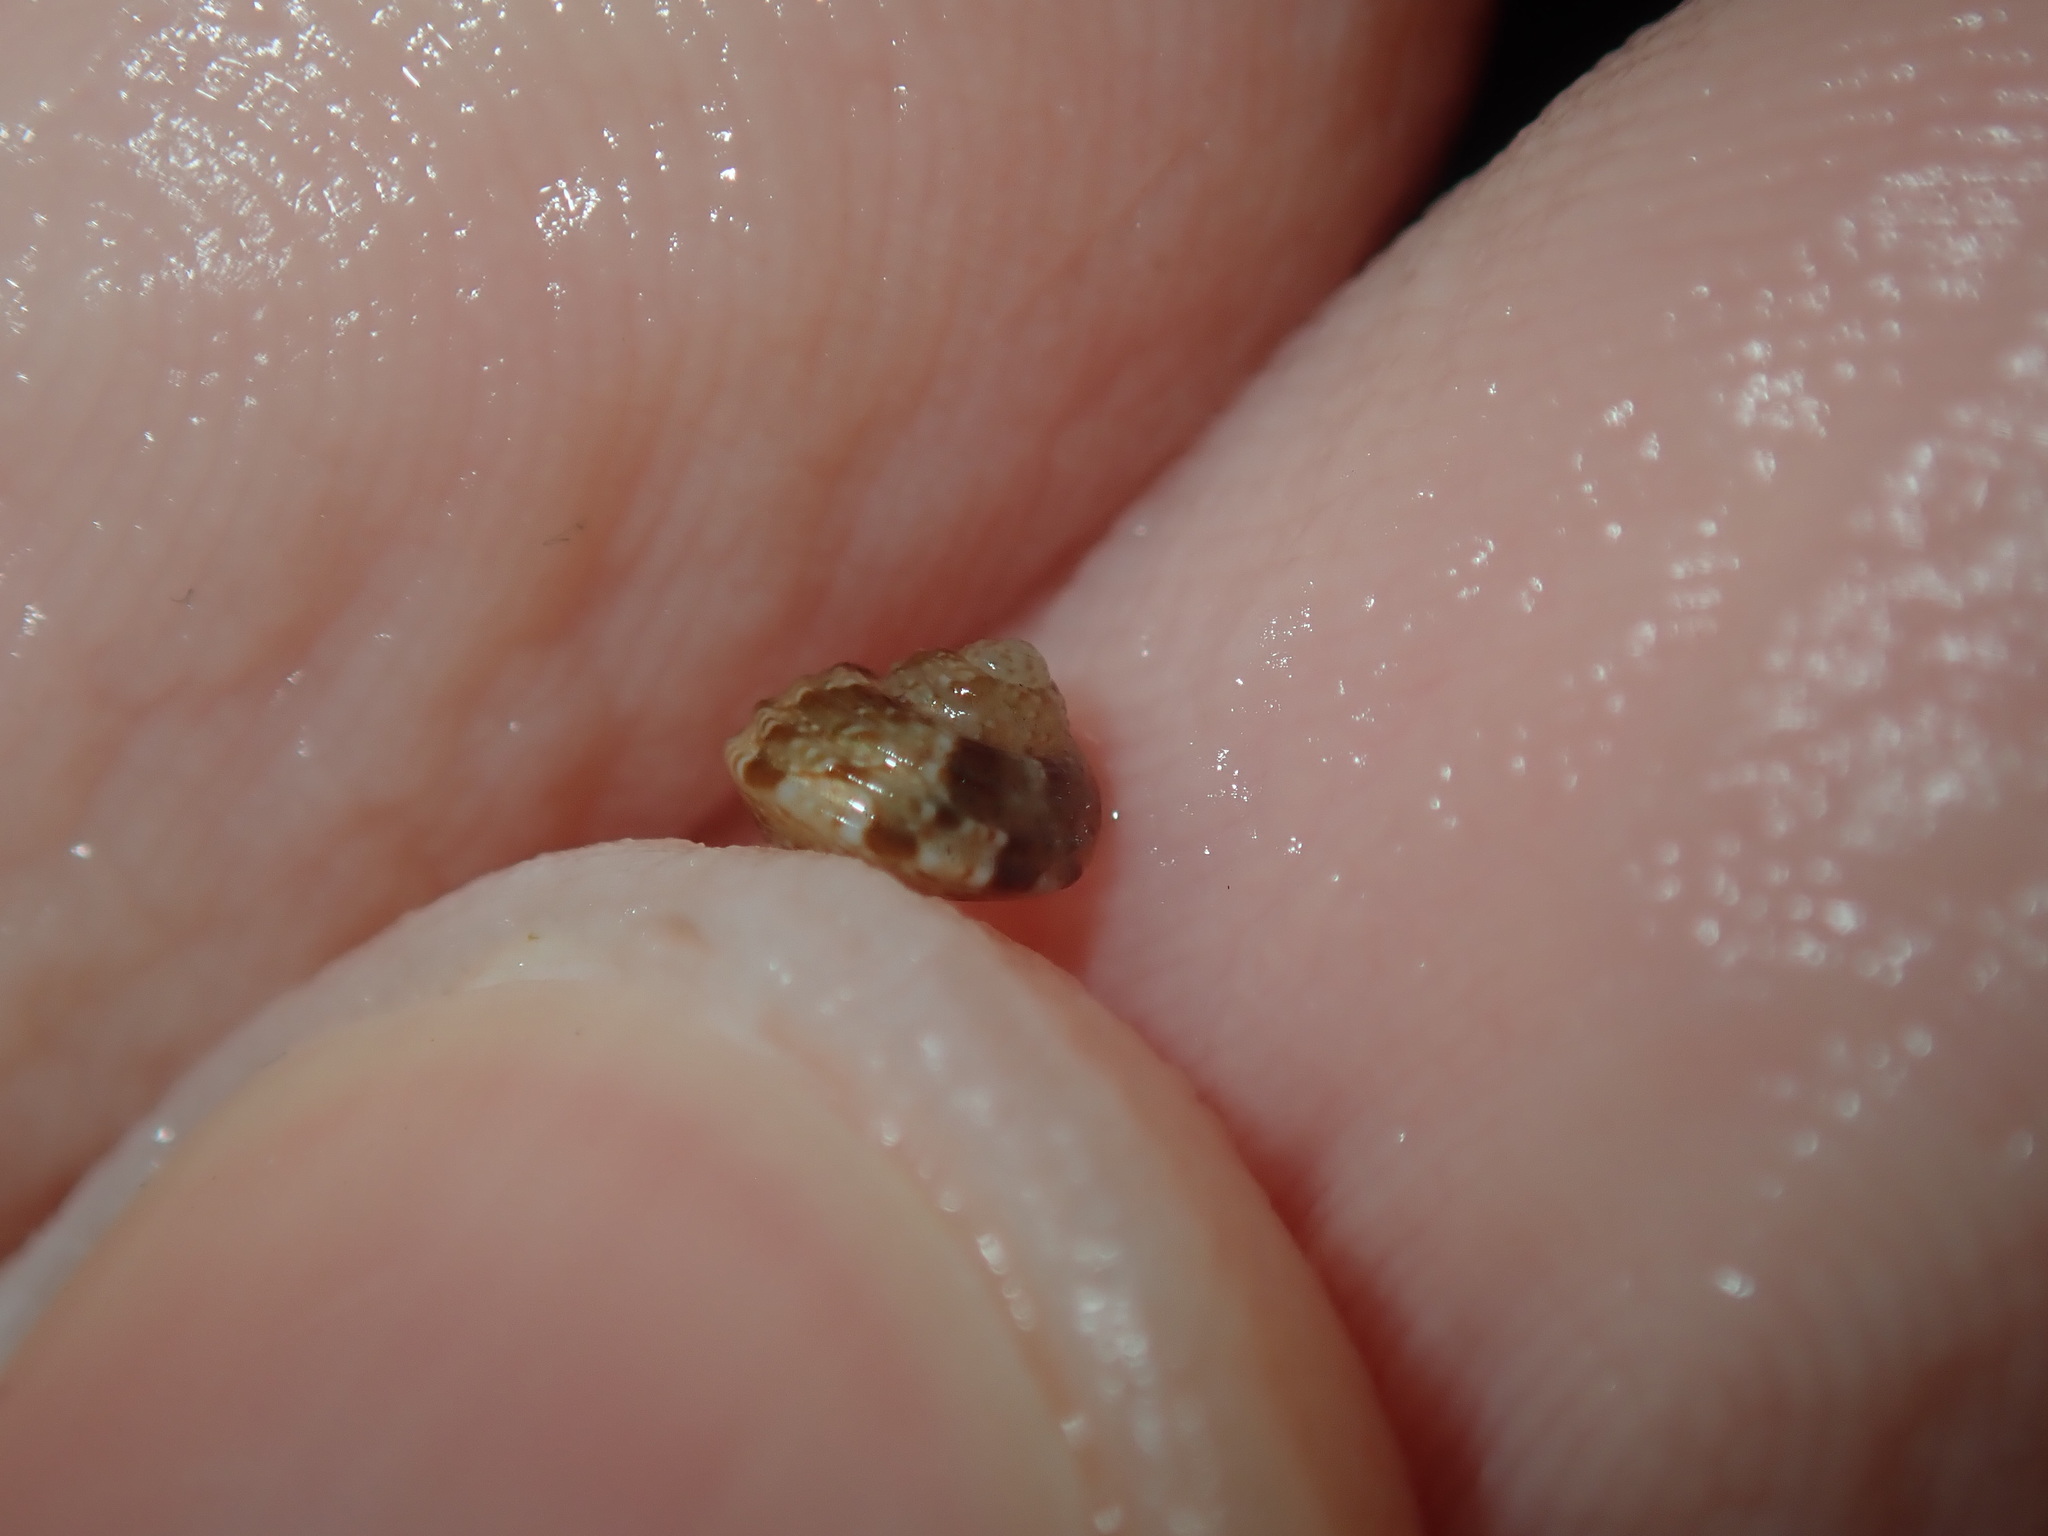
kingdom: Animalia
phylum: Mollusca
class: Gastropoda
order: Trochida
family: Trochidae
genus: Eurytrochus
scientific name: Eurytrochus strangei
